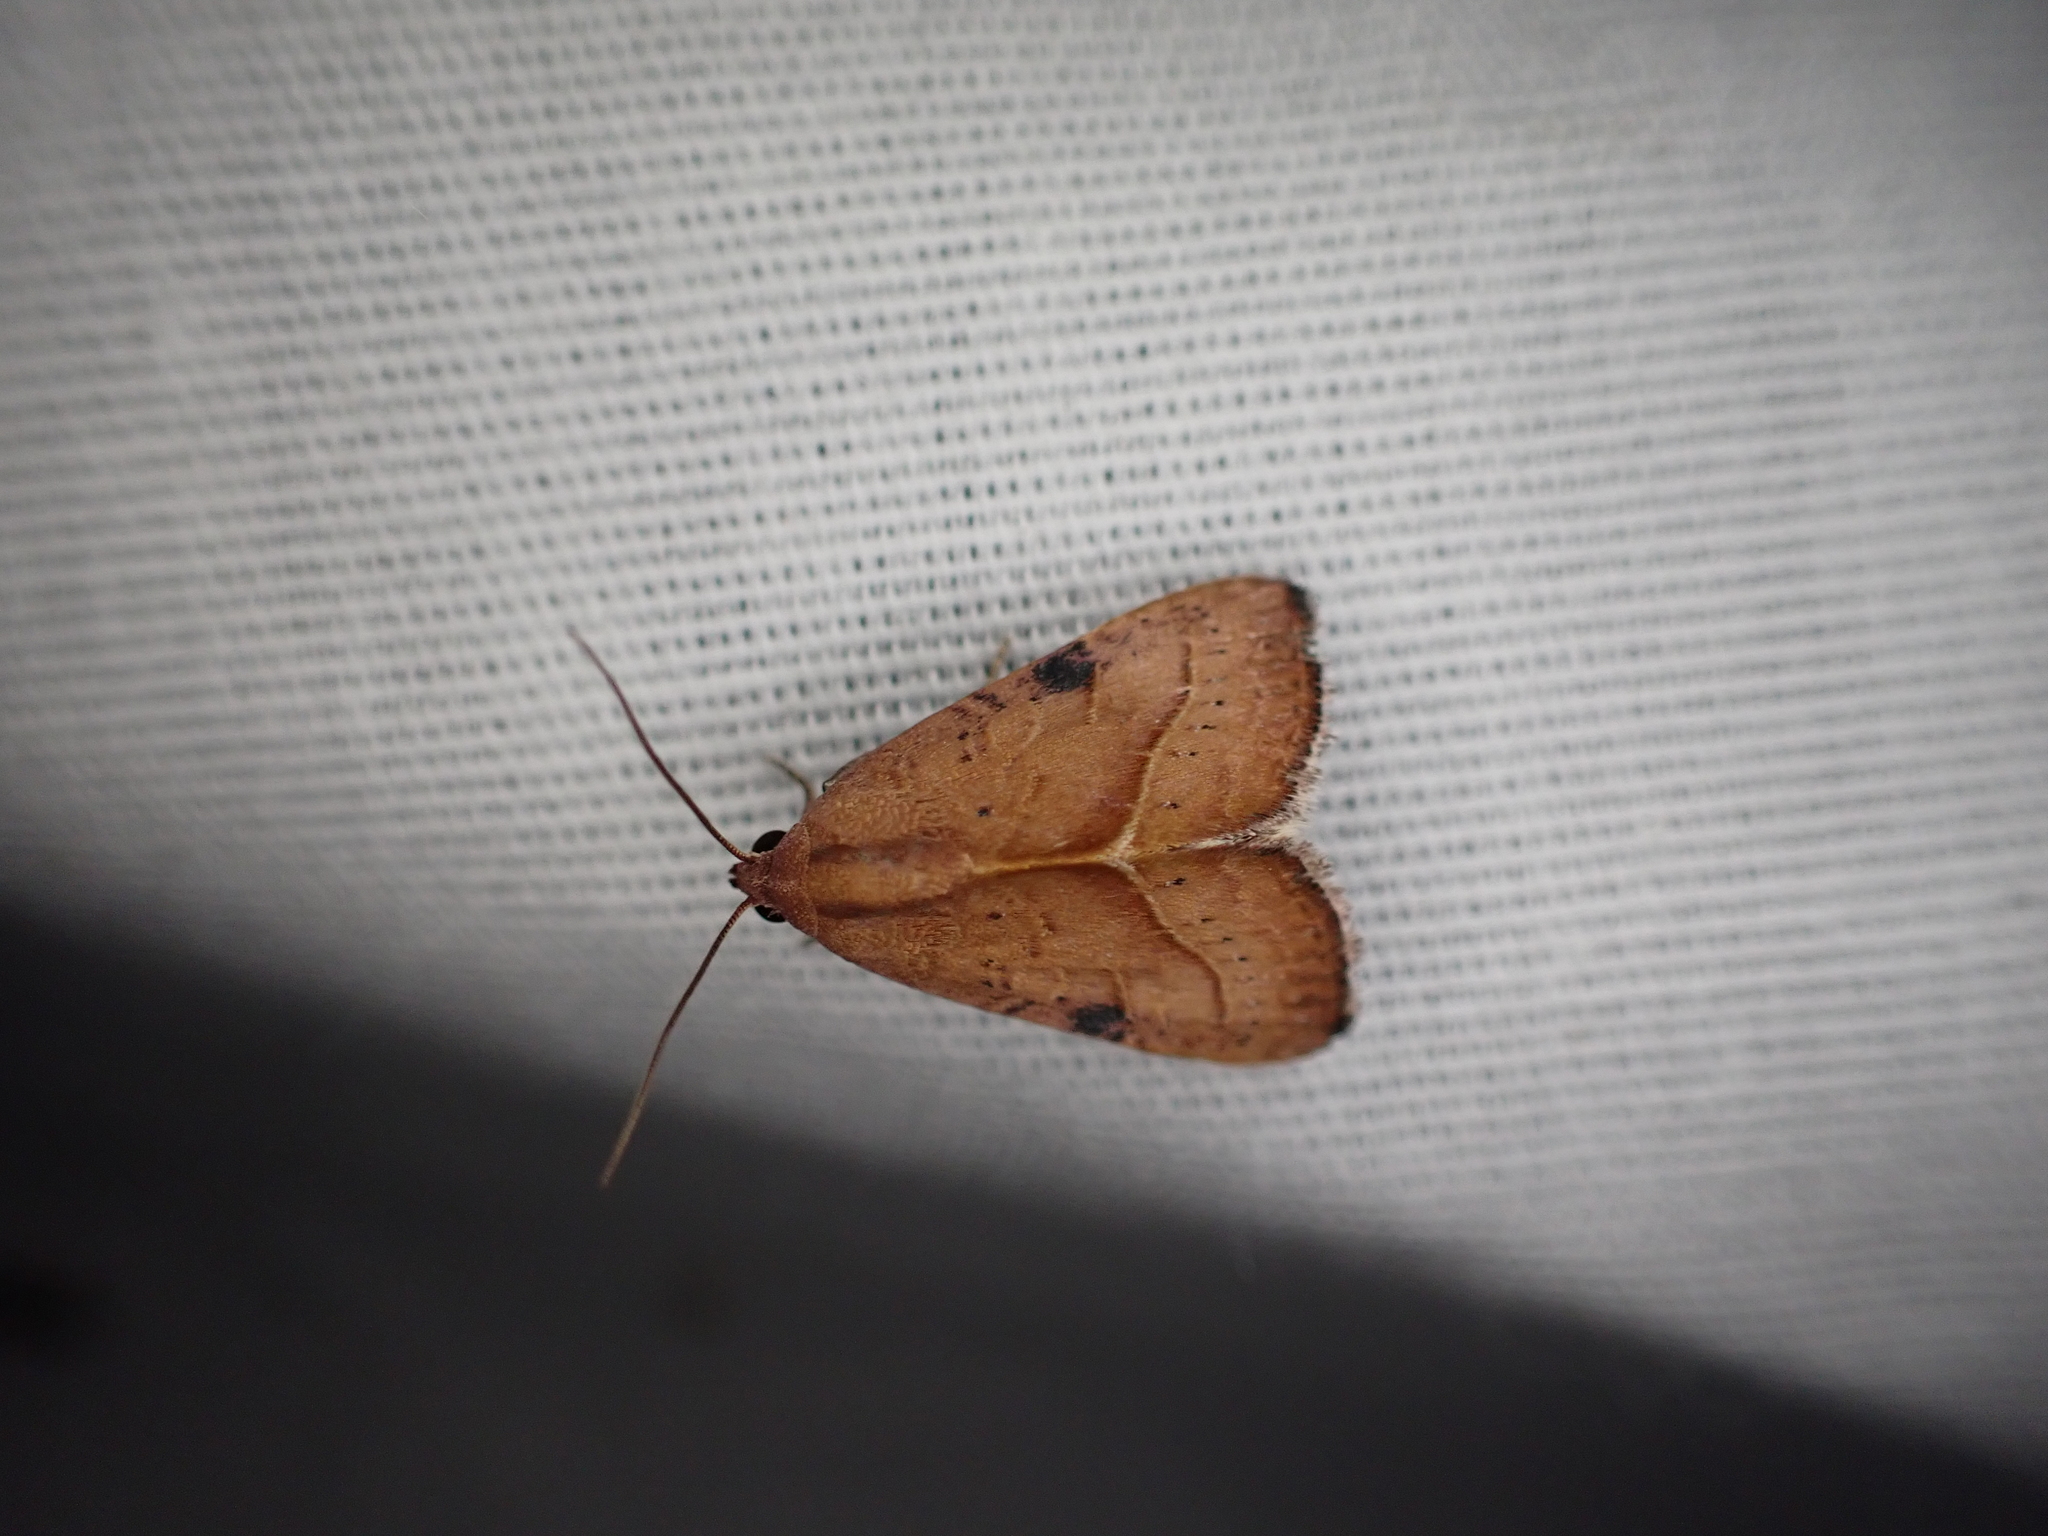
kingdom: Animalia
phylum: Arthropoda
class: Insecta
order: Lepidoptera
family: Noctuidae
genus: Galgula
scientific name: Galgula partita
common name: Wedgeling
